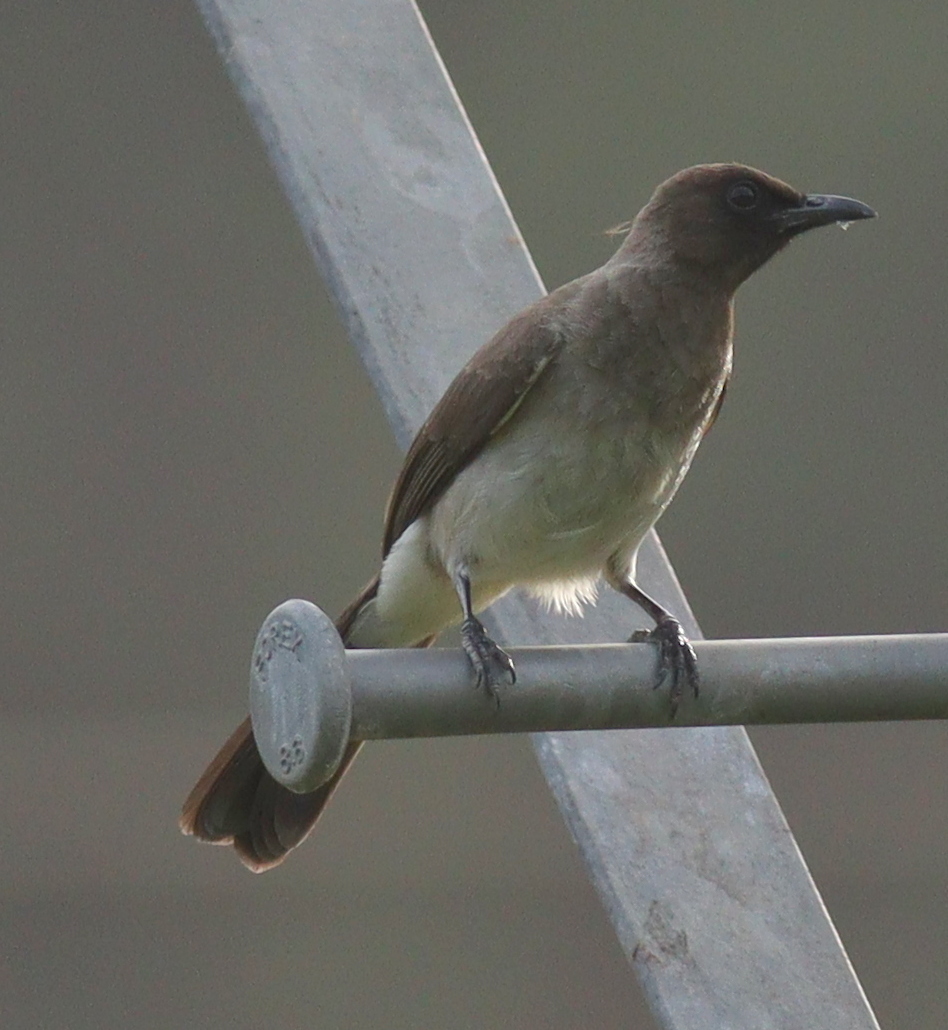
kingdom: Animalia
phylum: Chordata
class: Aves
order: Passeriformes
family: Pycnonotidae
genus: Pycnonotus
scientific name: Pycnonotus barbatus
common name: Common bulbul
